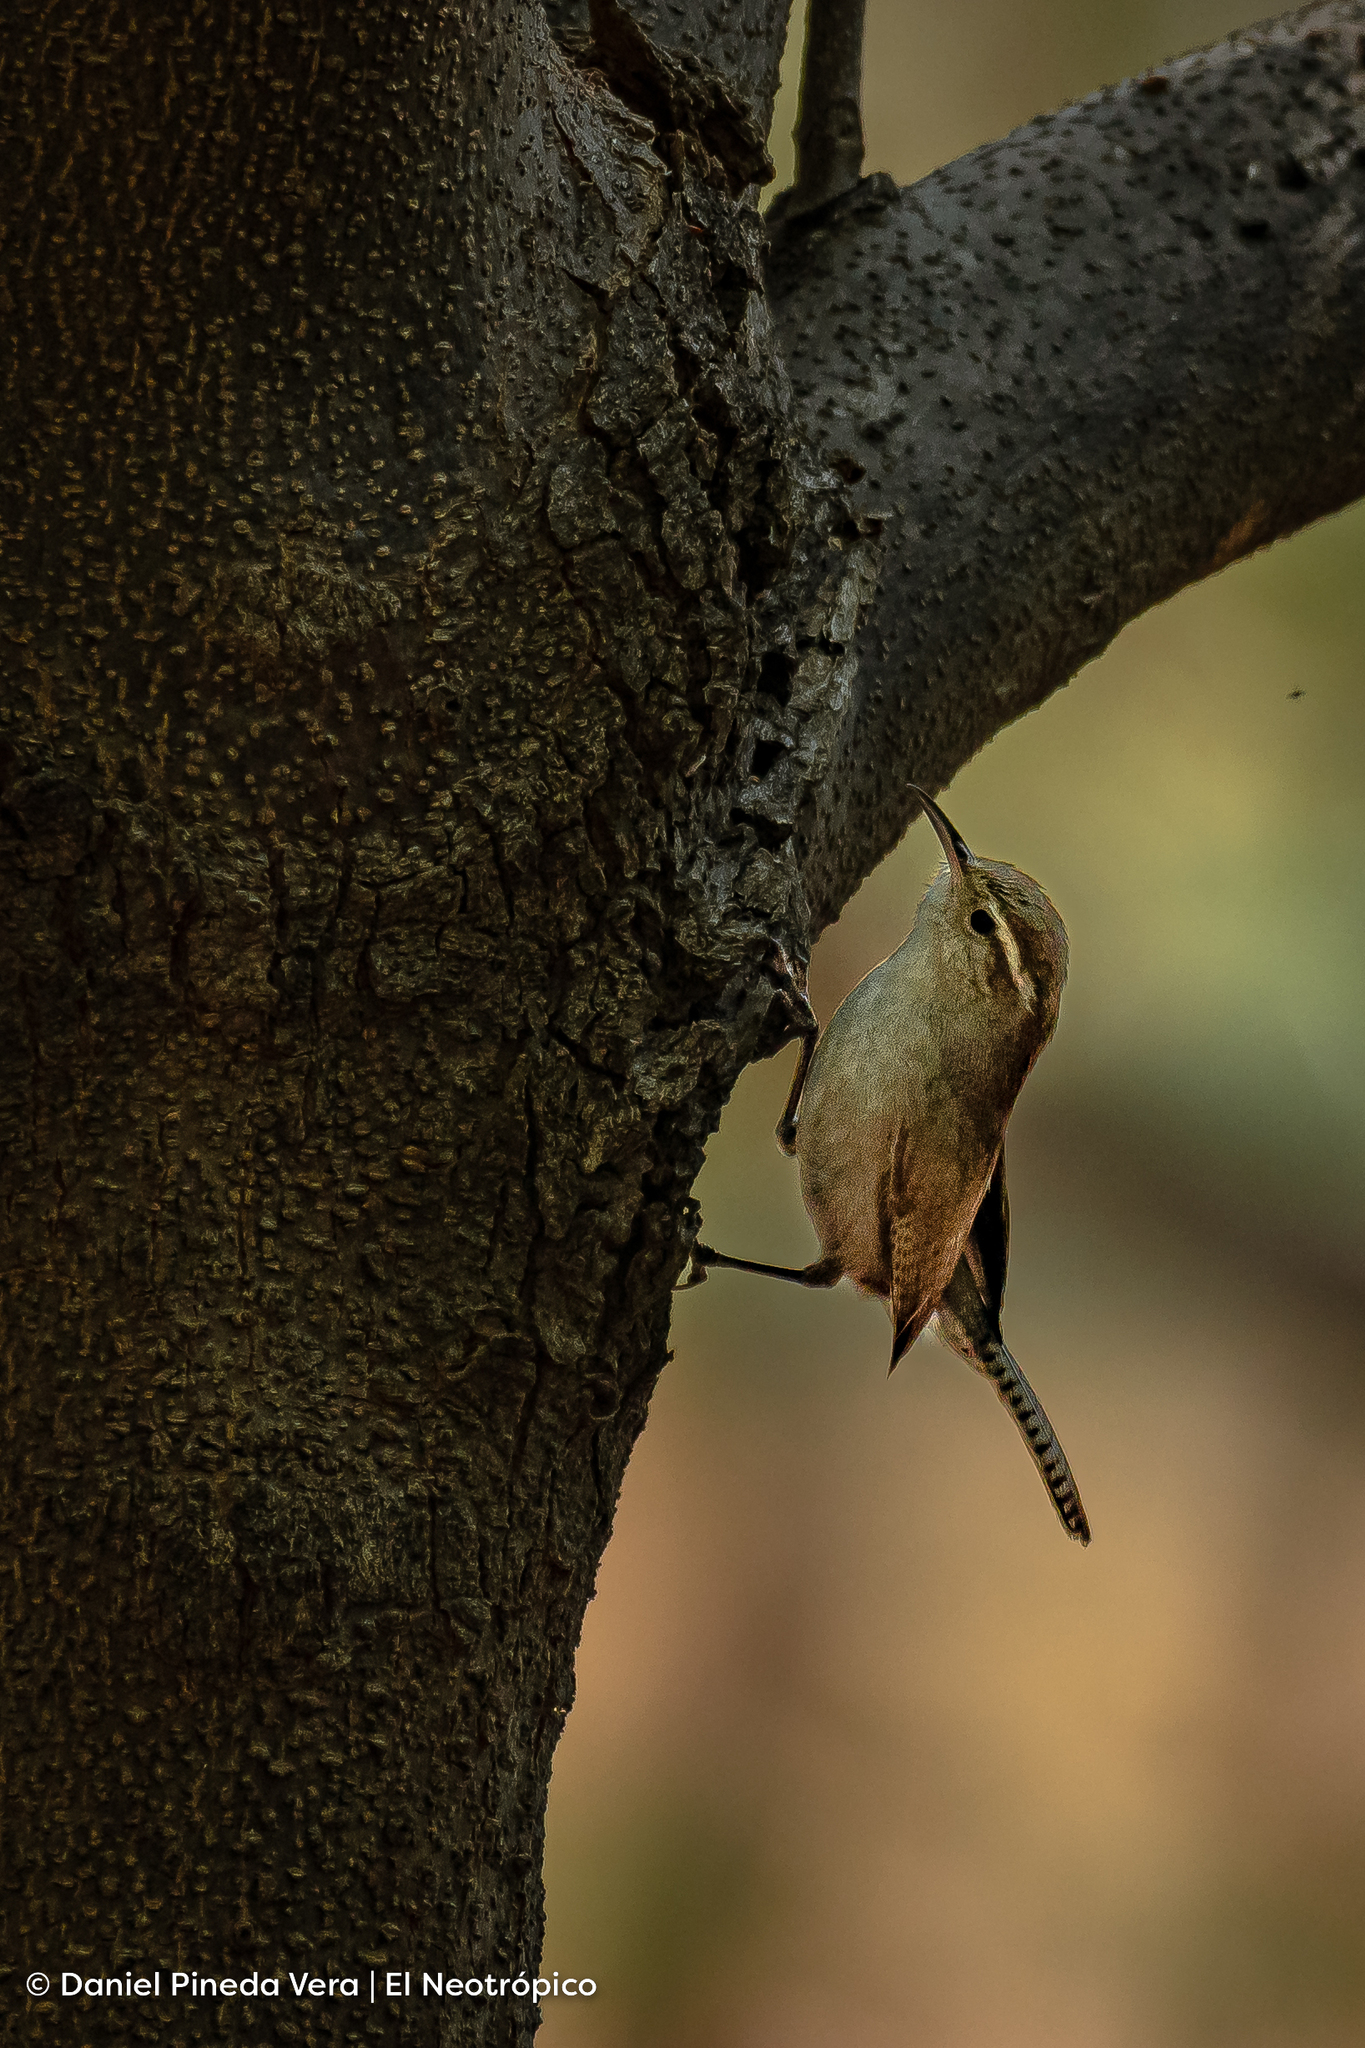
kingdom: Animalia
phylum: Chordata
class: Aves
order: Passeriformes
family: Troglodytidae
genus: Thryomanes
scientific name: Thryomanes bewickii
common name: Bewick's wren
